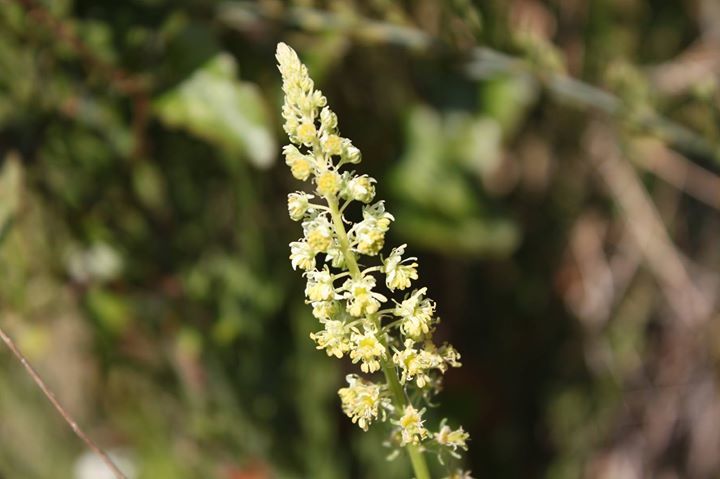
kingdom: Plantae
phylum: Tracheophyta
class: Magnoliopsida
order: Brassicales
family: Resedaceae
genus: Reseda
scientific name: Reseda lutea
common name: Wild mignonette
